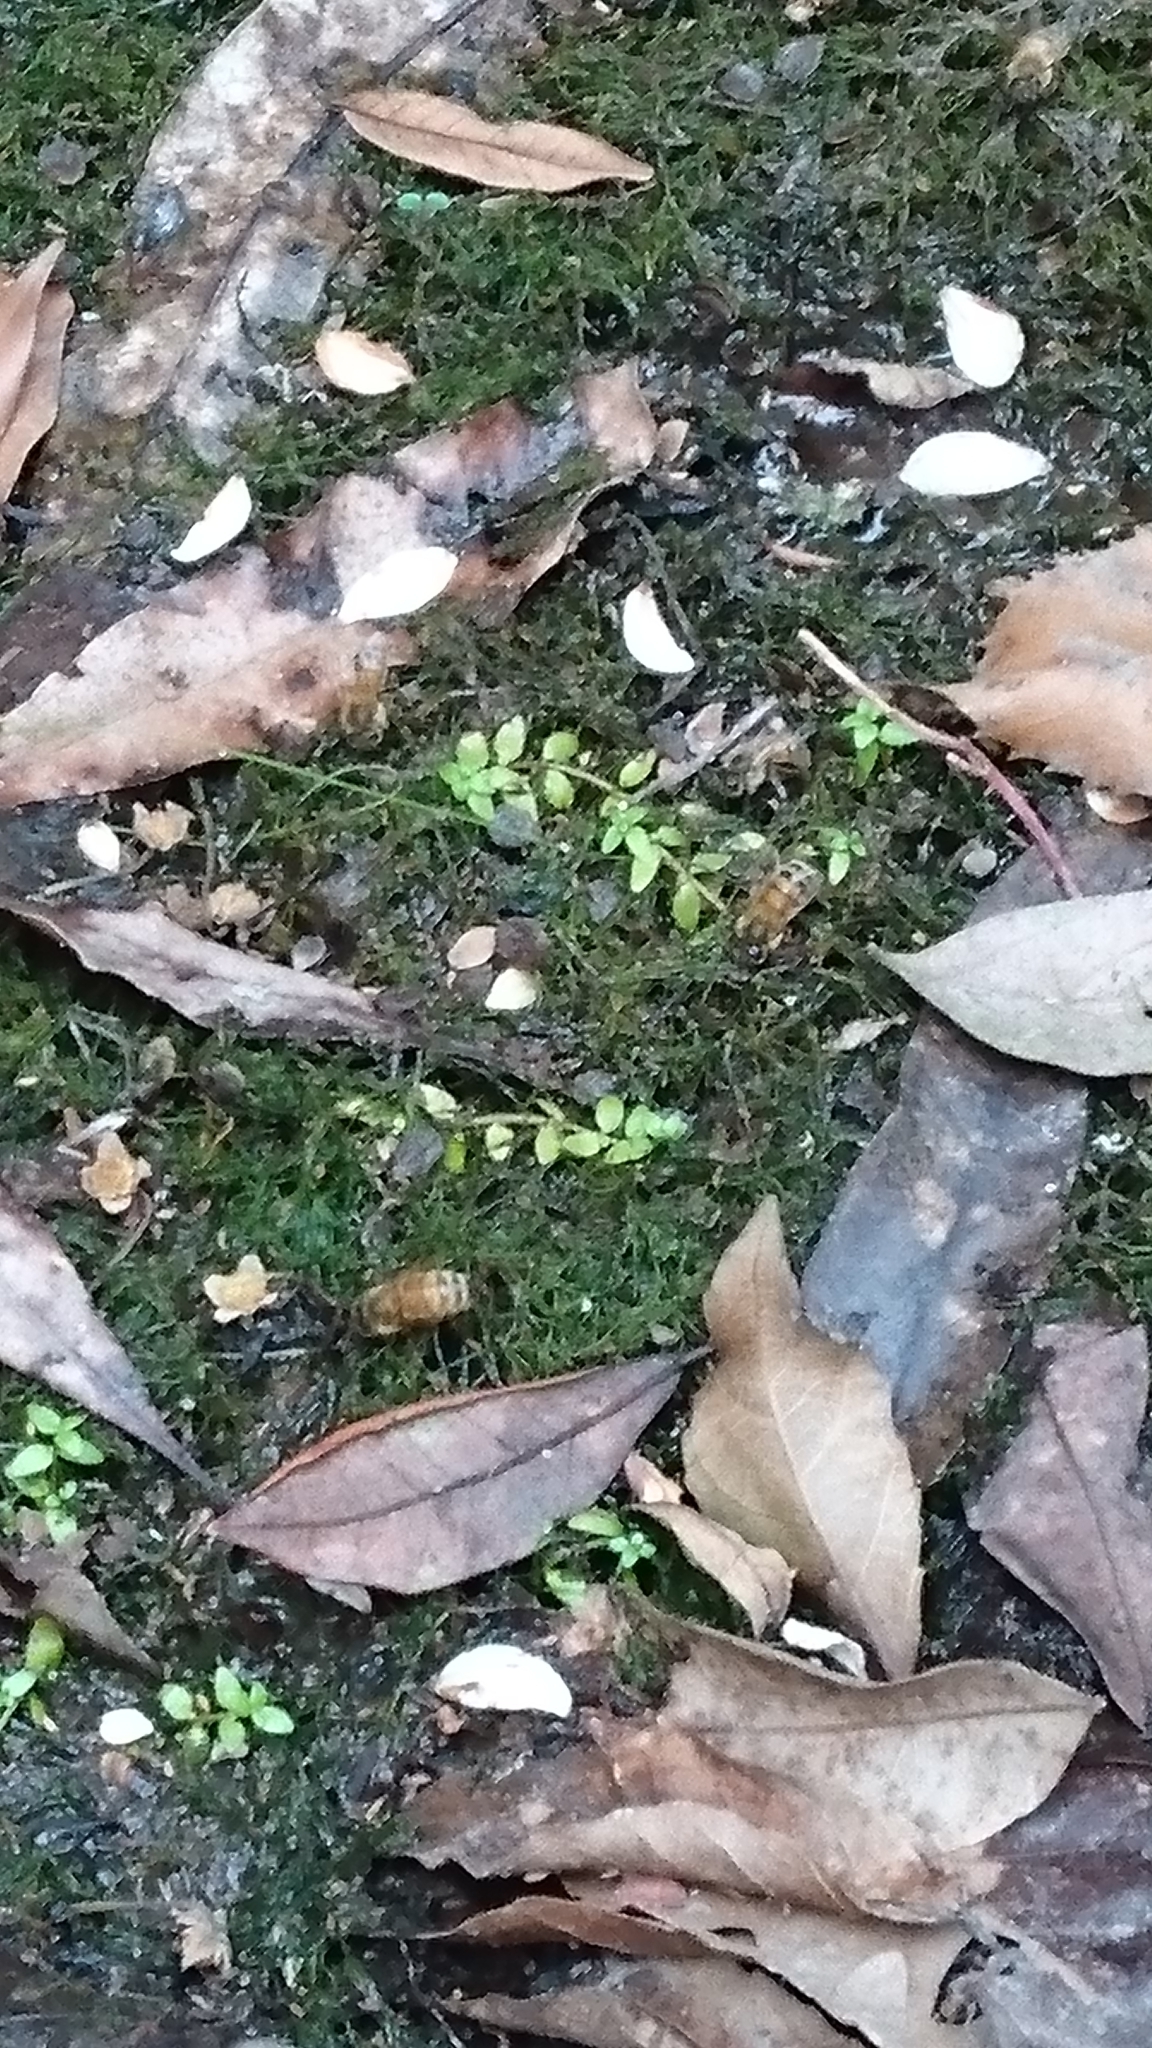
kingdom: Animalia
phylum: Arthropoda
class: Insecta
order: Hymenoptera
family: Apidae
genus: Apis
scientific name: Apis mellifera
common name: Honey bee
